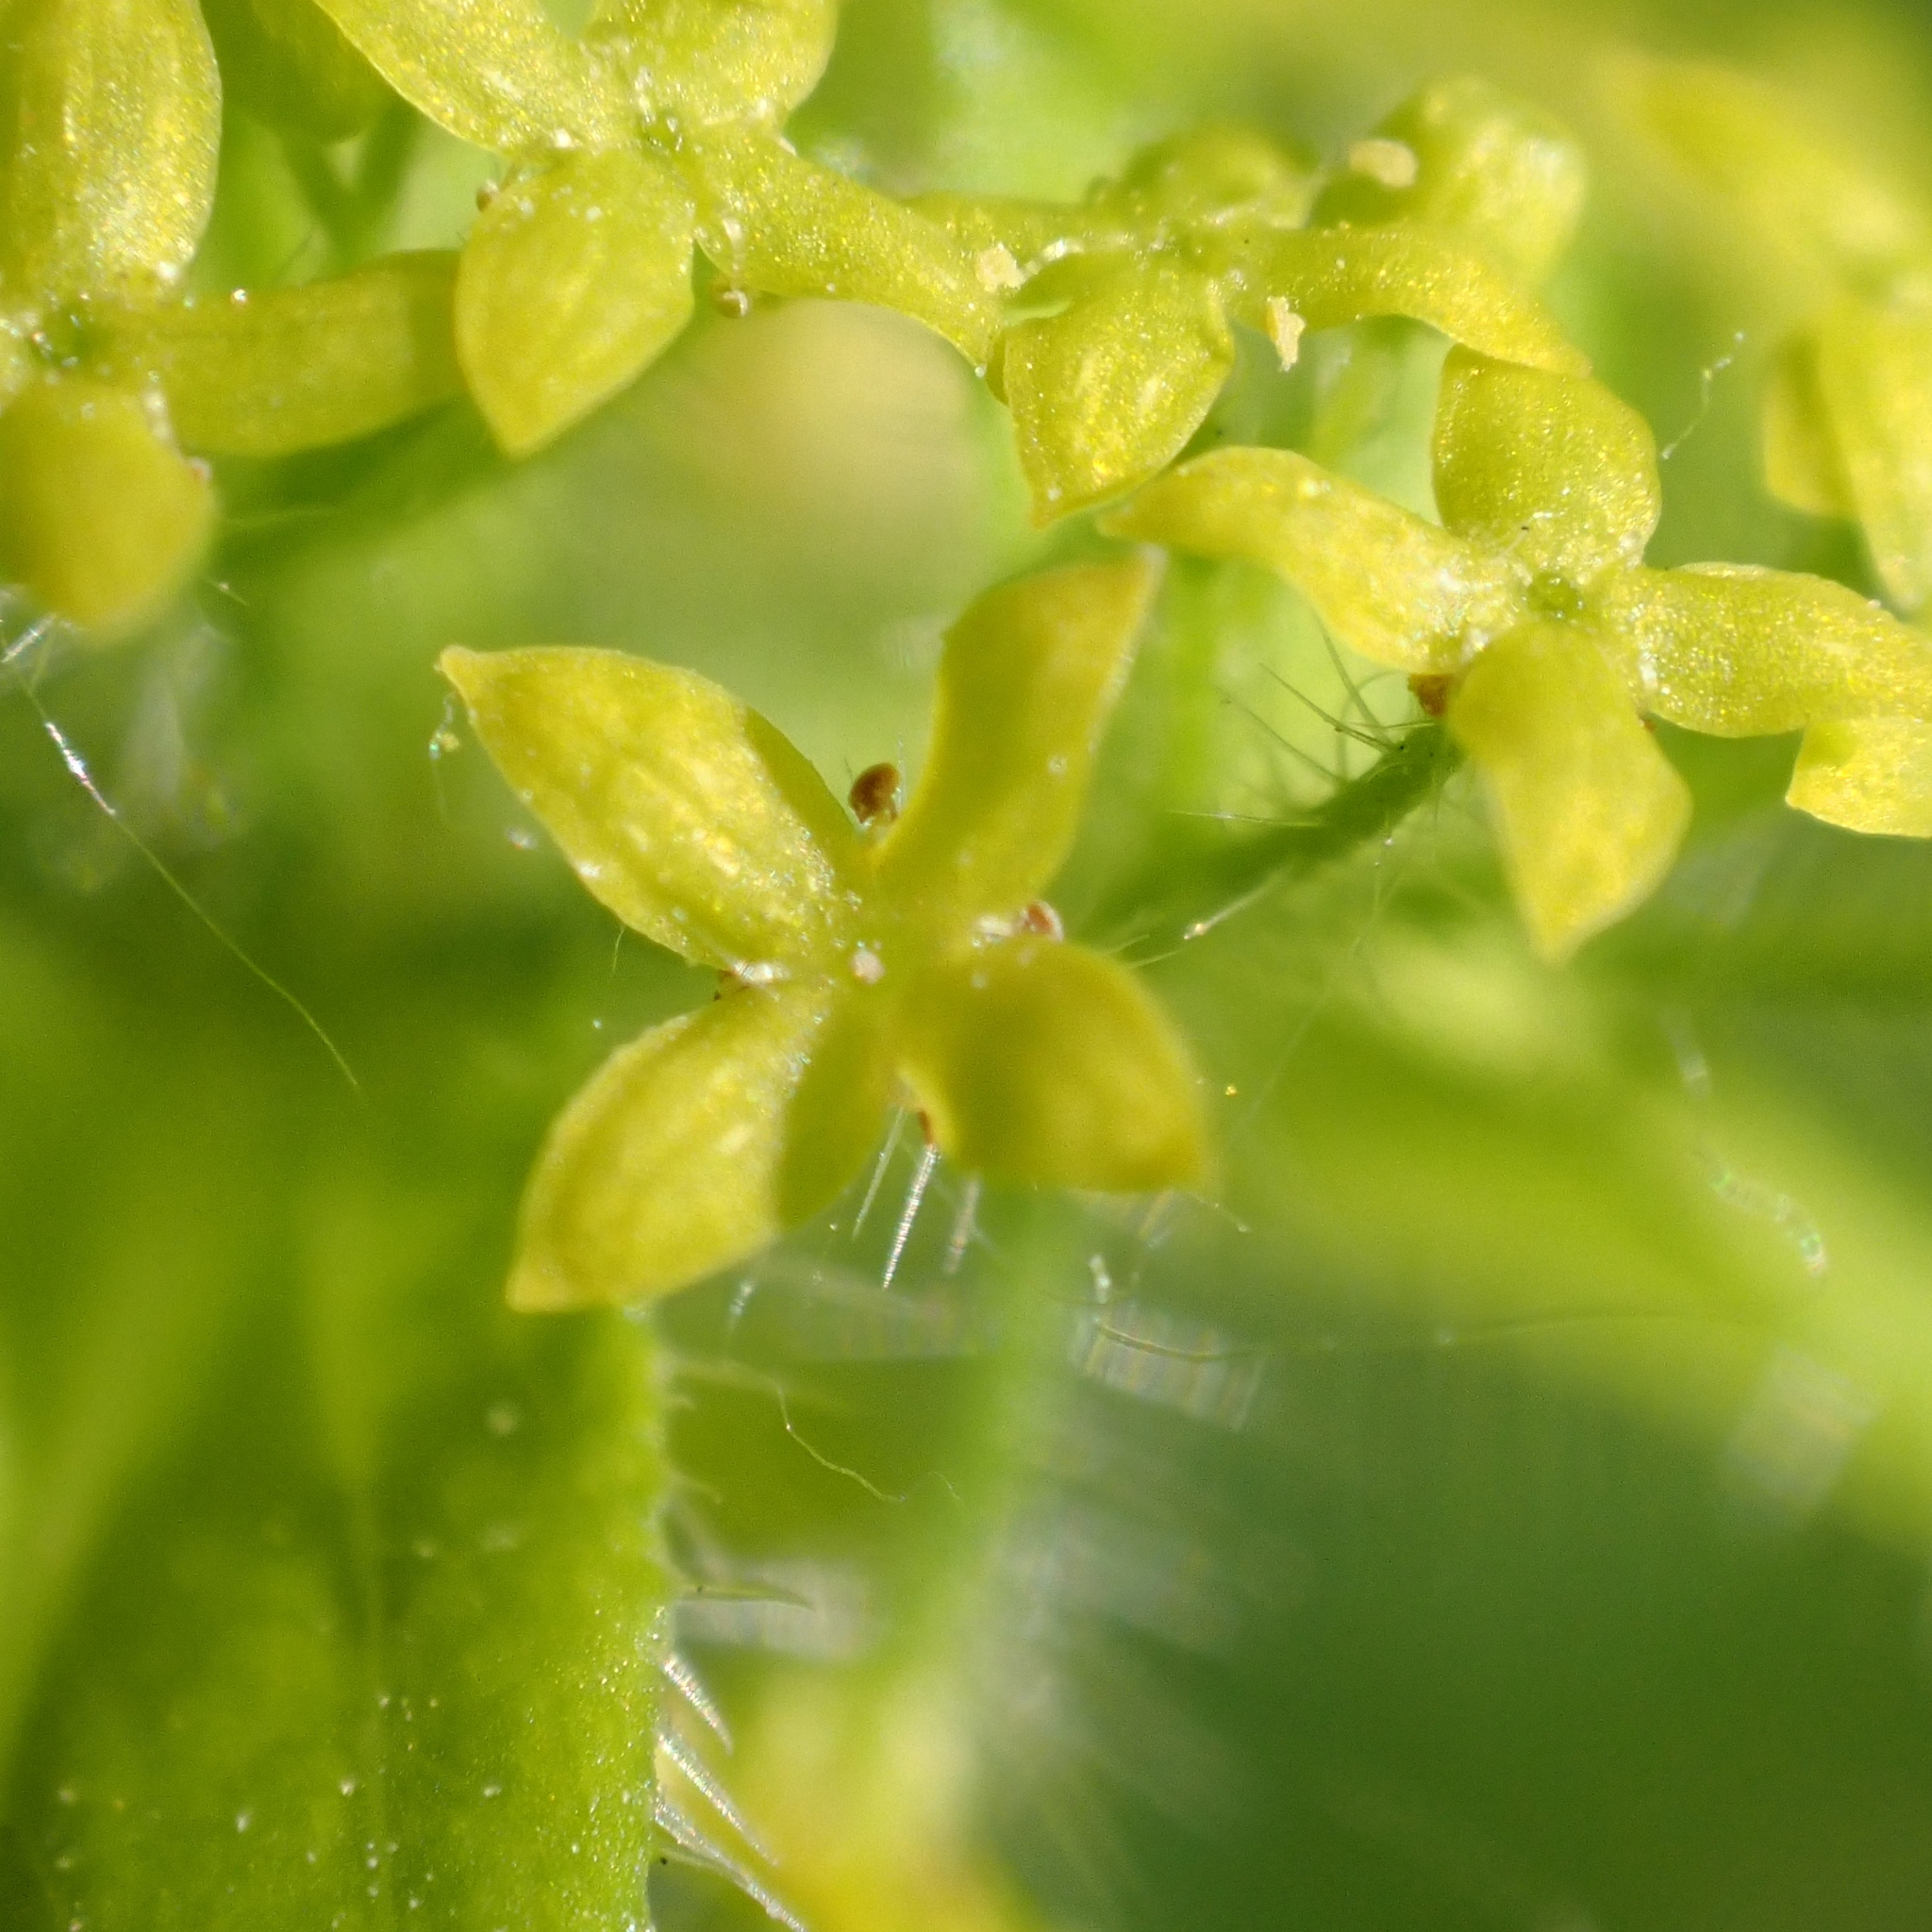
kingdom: Plantae
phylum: Tracheophyta
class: Magnoliopsida
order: Gentianales
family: Rubiaceae
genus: Cruciata
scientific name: Cruciata laevipes
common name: Crosswort
